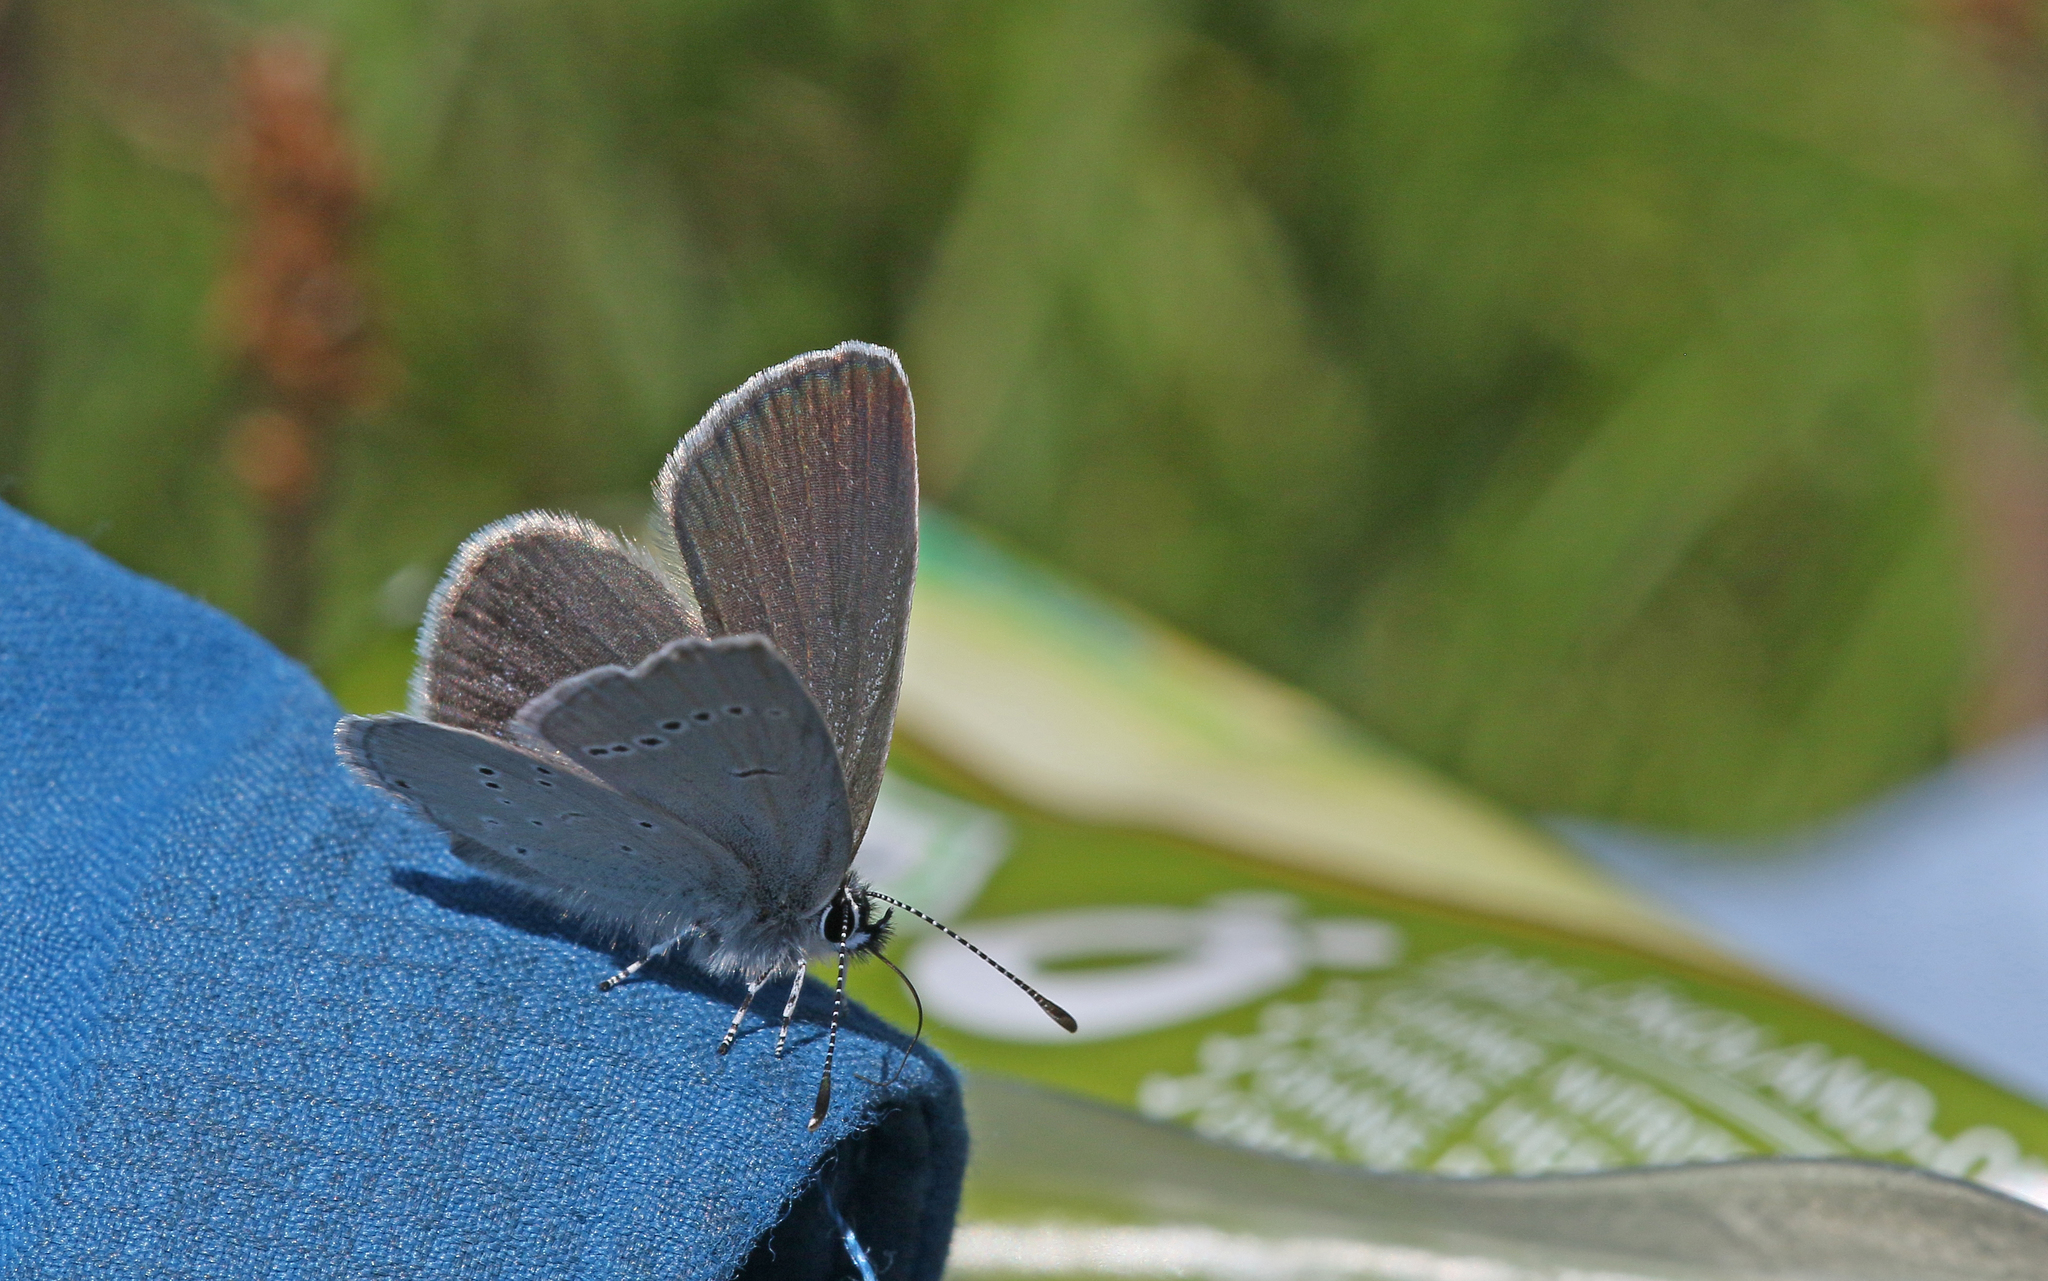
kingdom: Animalia
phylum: Arthropoda
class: Insecta
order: Lepidoptera
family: Lycaenidae
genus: Cupido
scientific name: Cupido minimus
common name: Small blue
